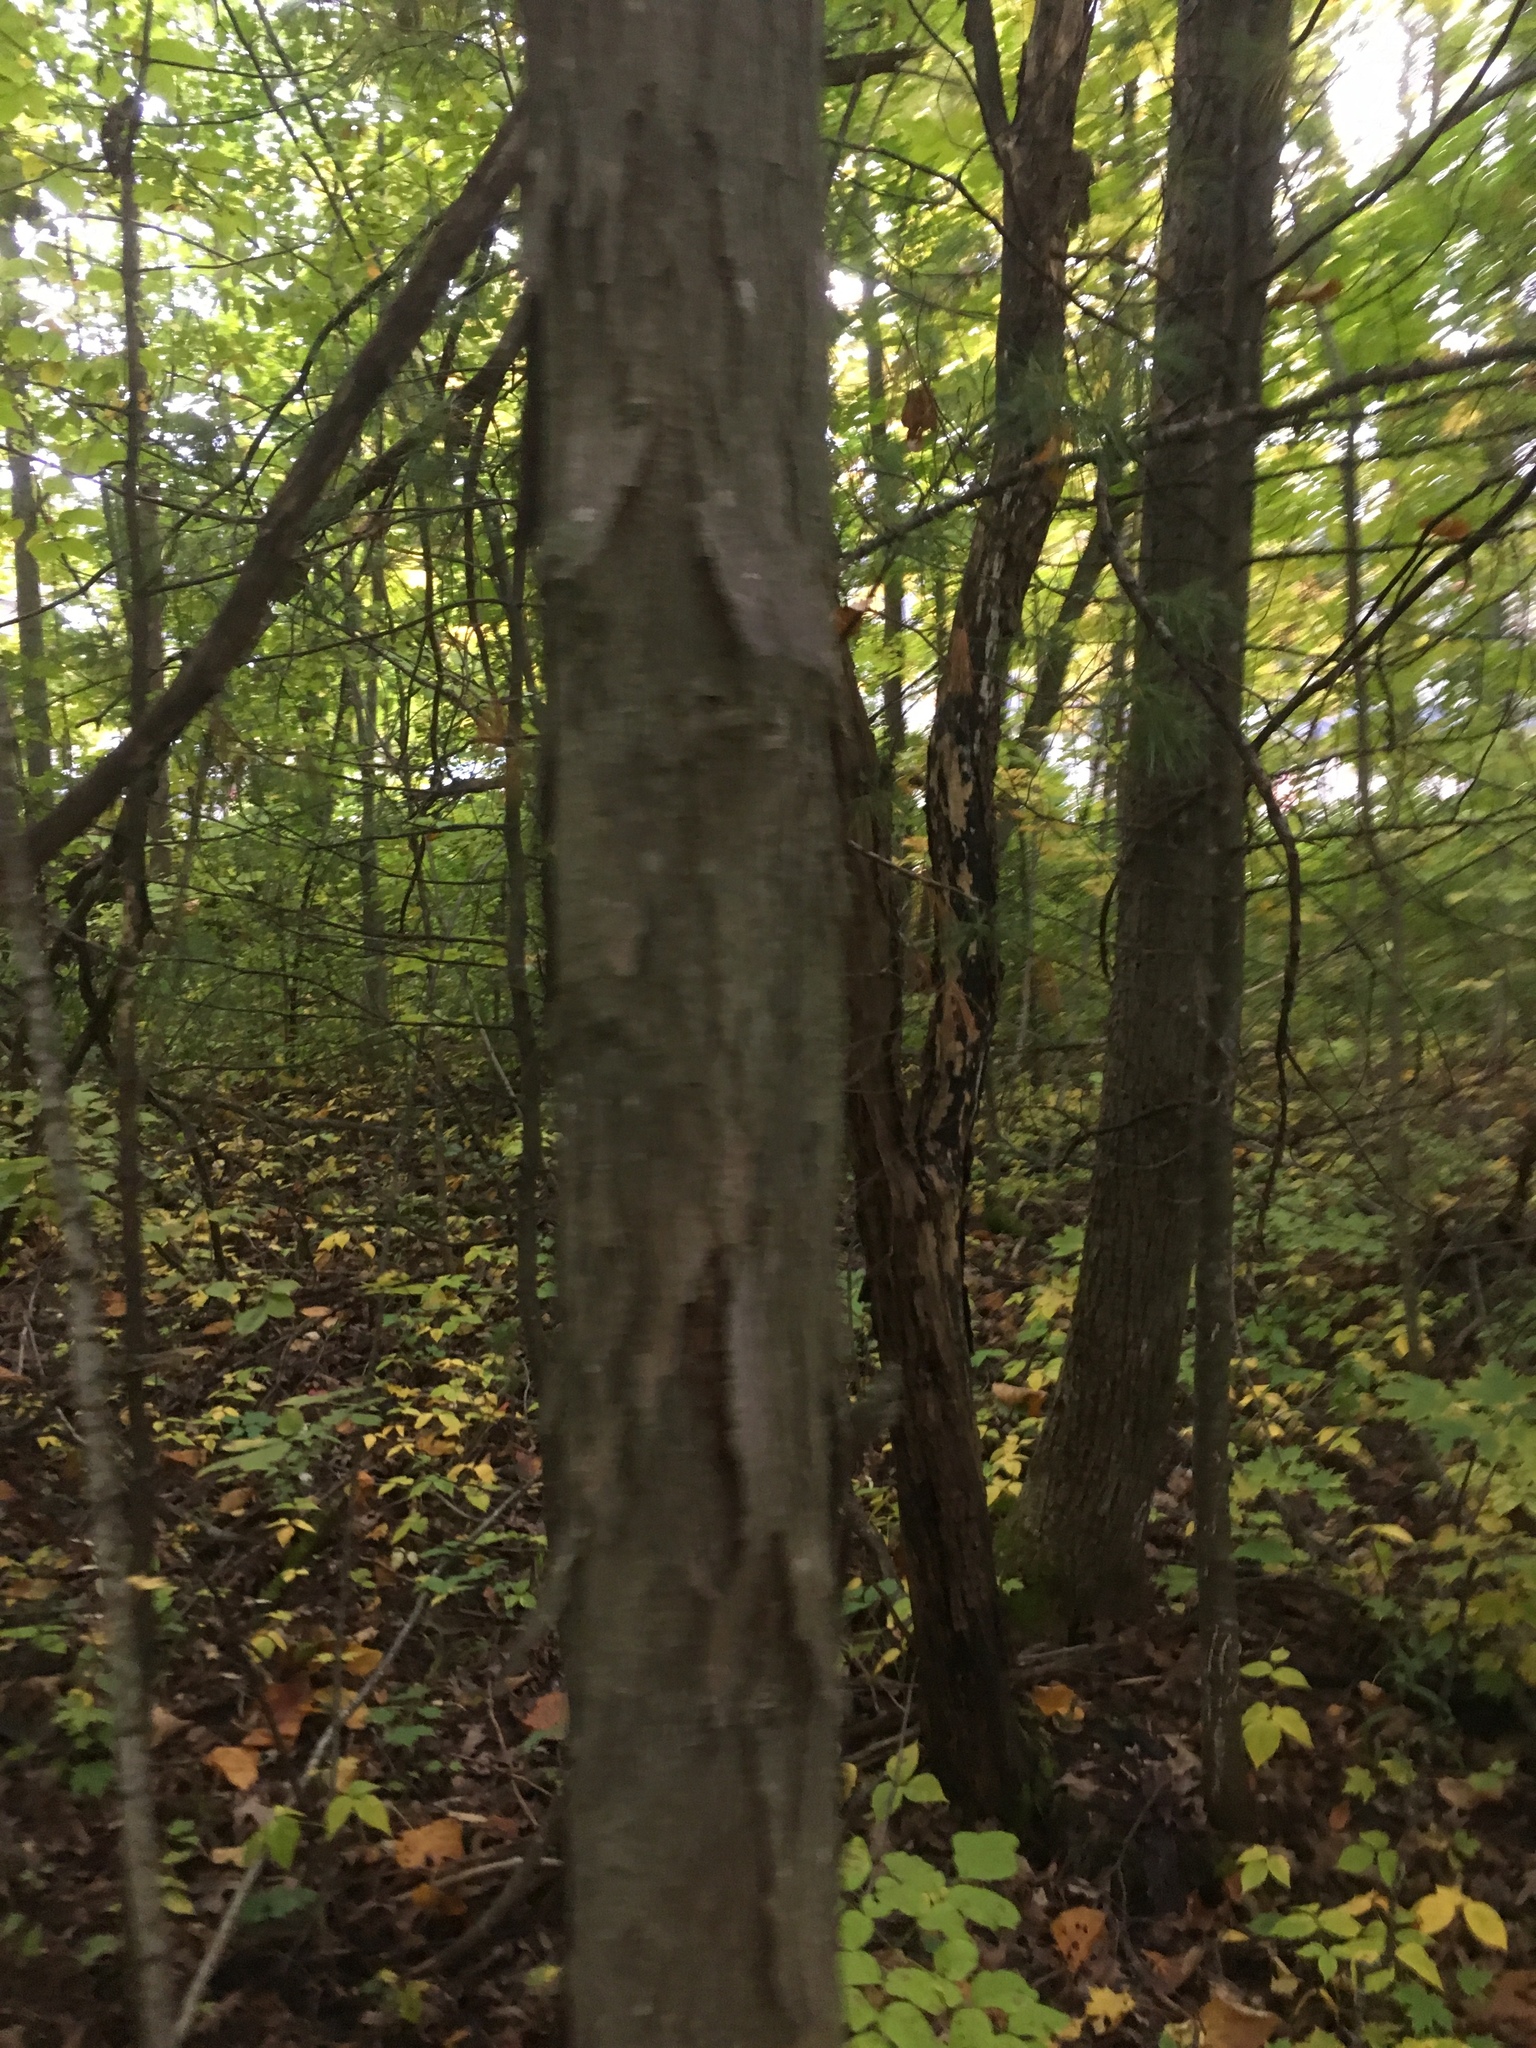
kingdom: Plantae
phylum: Tracheophyta
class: Magnoliopsida
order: Fagales
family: Juglandaceae
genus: Carya
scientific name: Carya ovata
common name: Shagbark hickory
